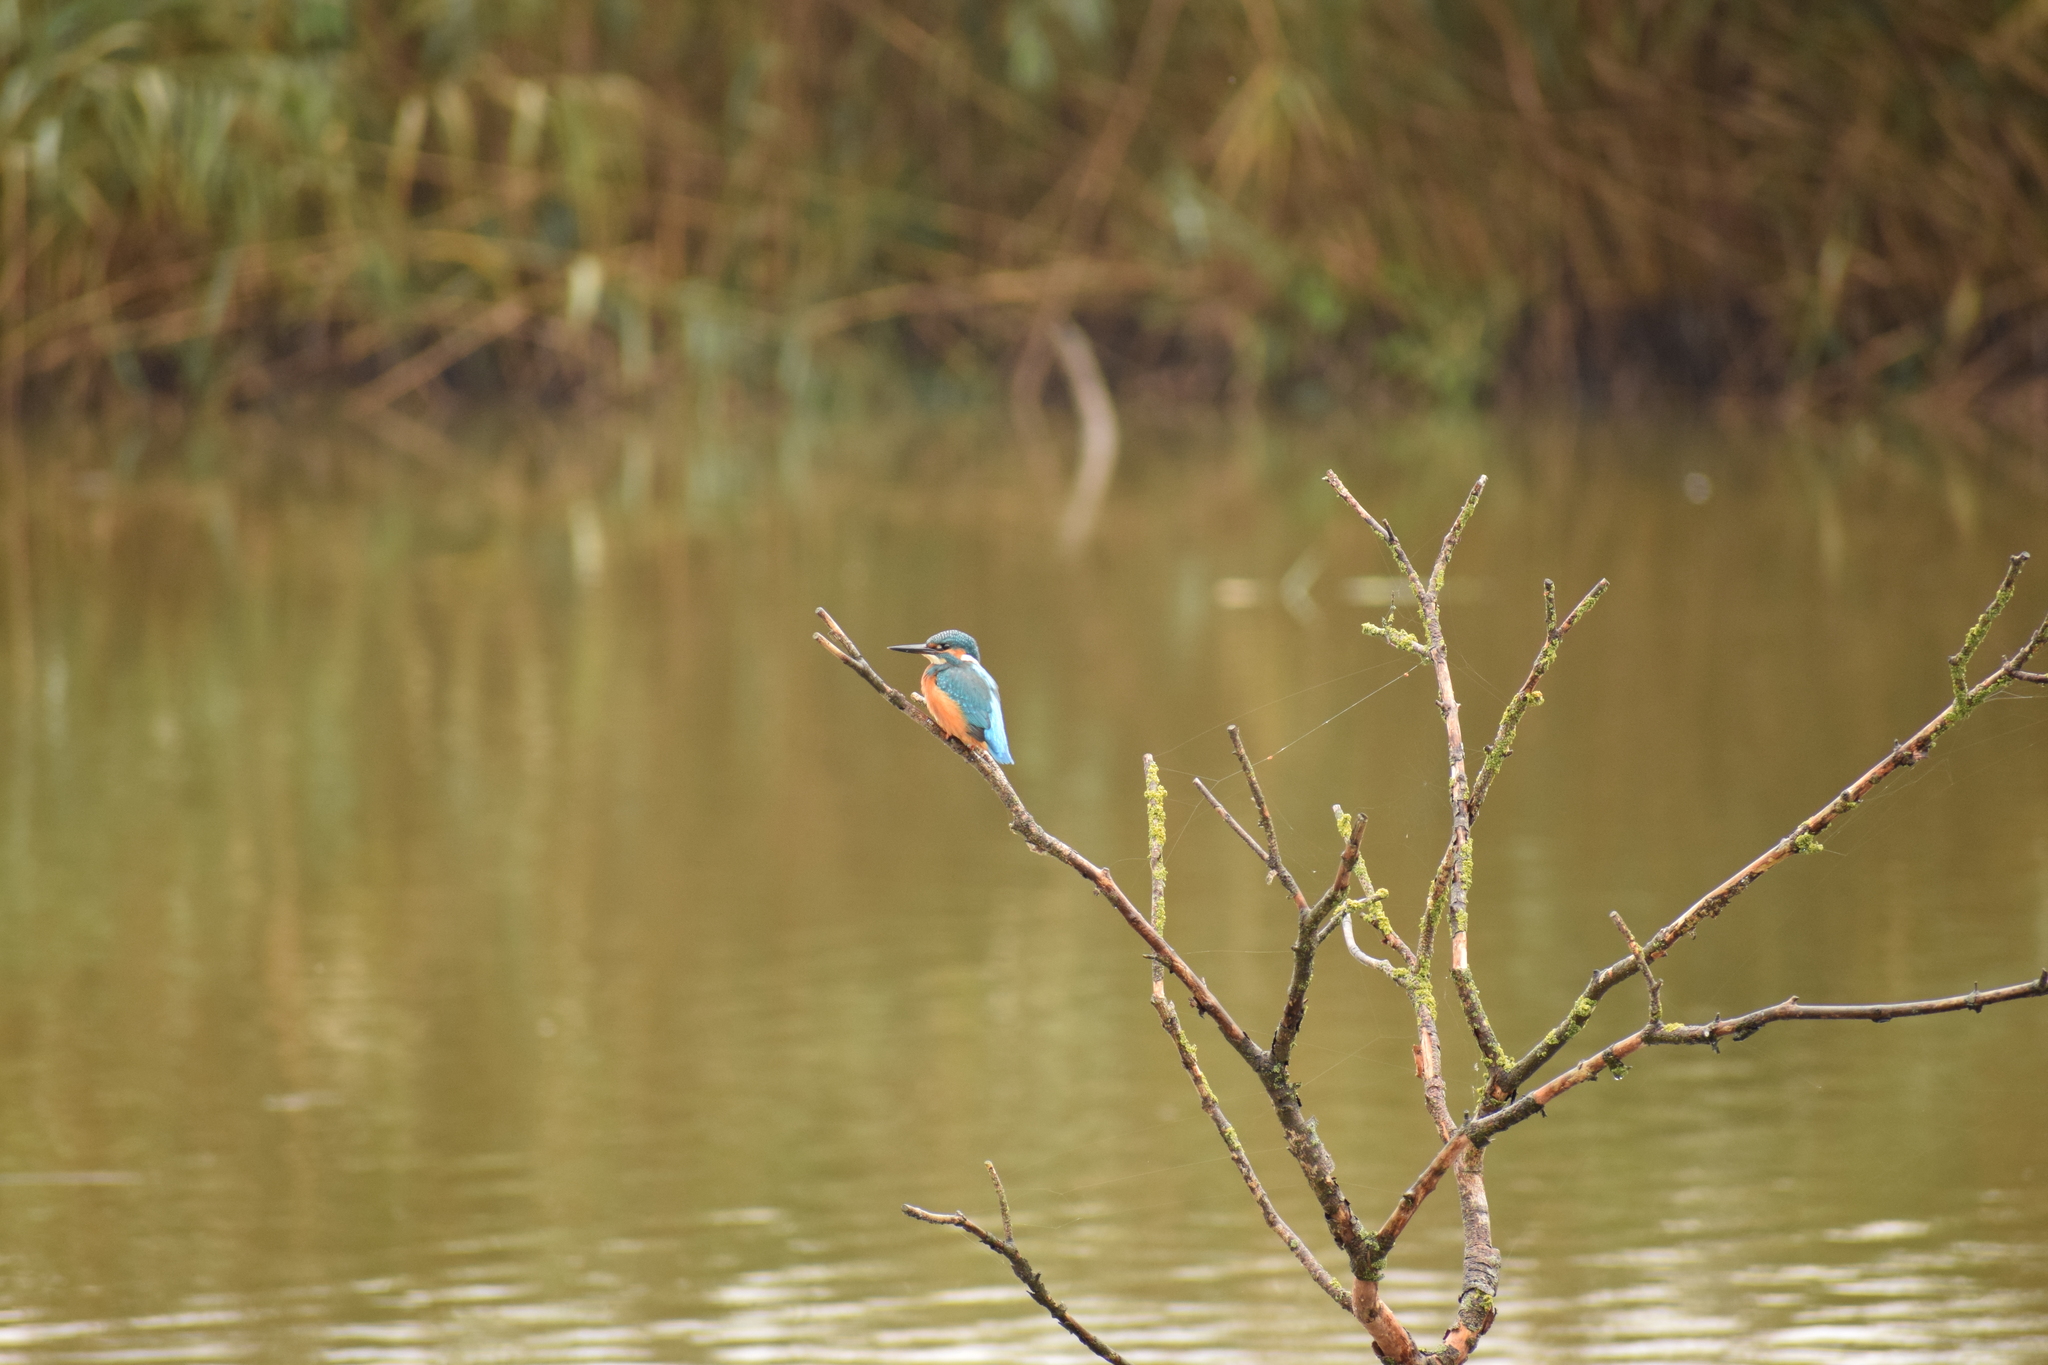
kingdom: Animalia
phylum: Chordata
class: Aves
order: Coraciiformes
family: Alcedinidae
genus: Alcedo
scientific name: Alcedo atthis
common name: Common kingfisher
